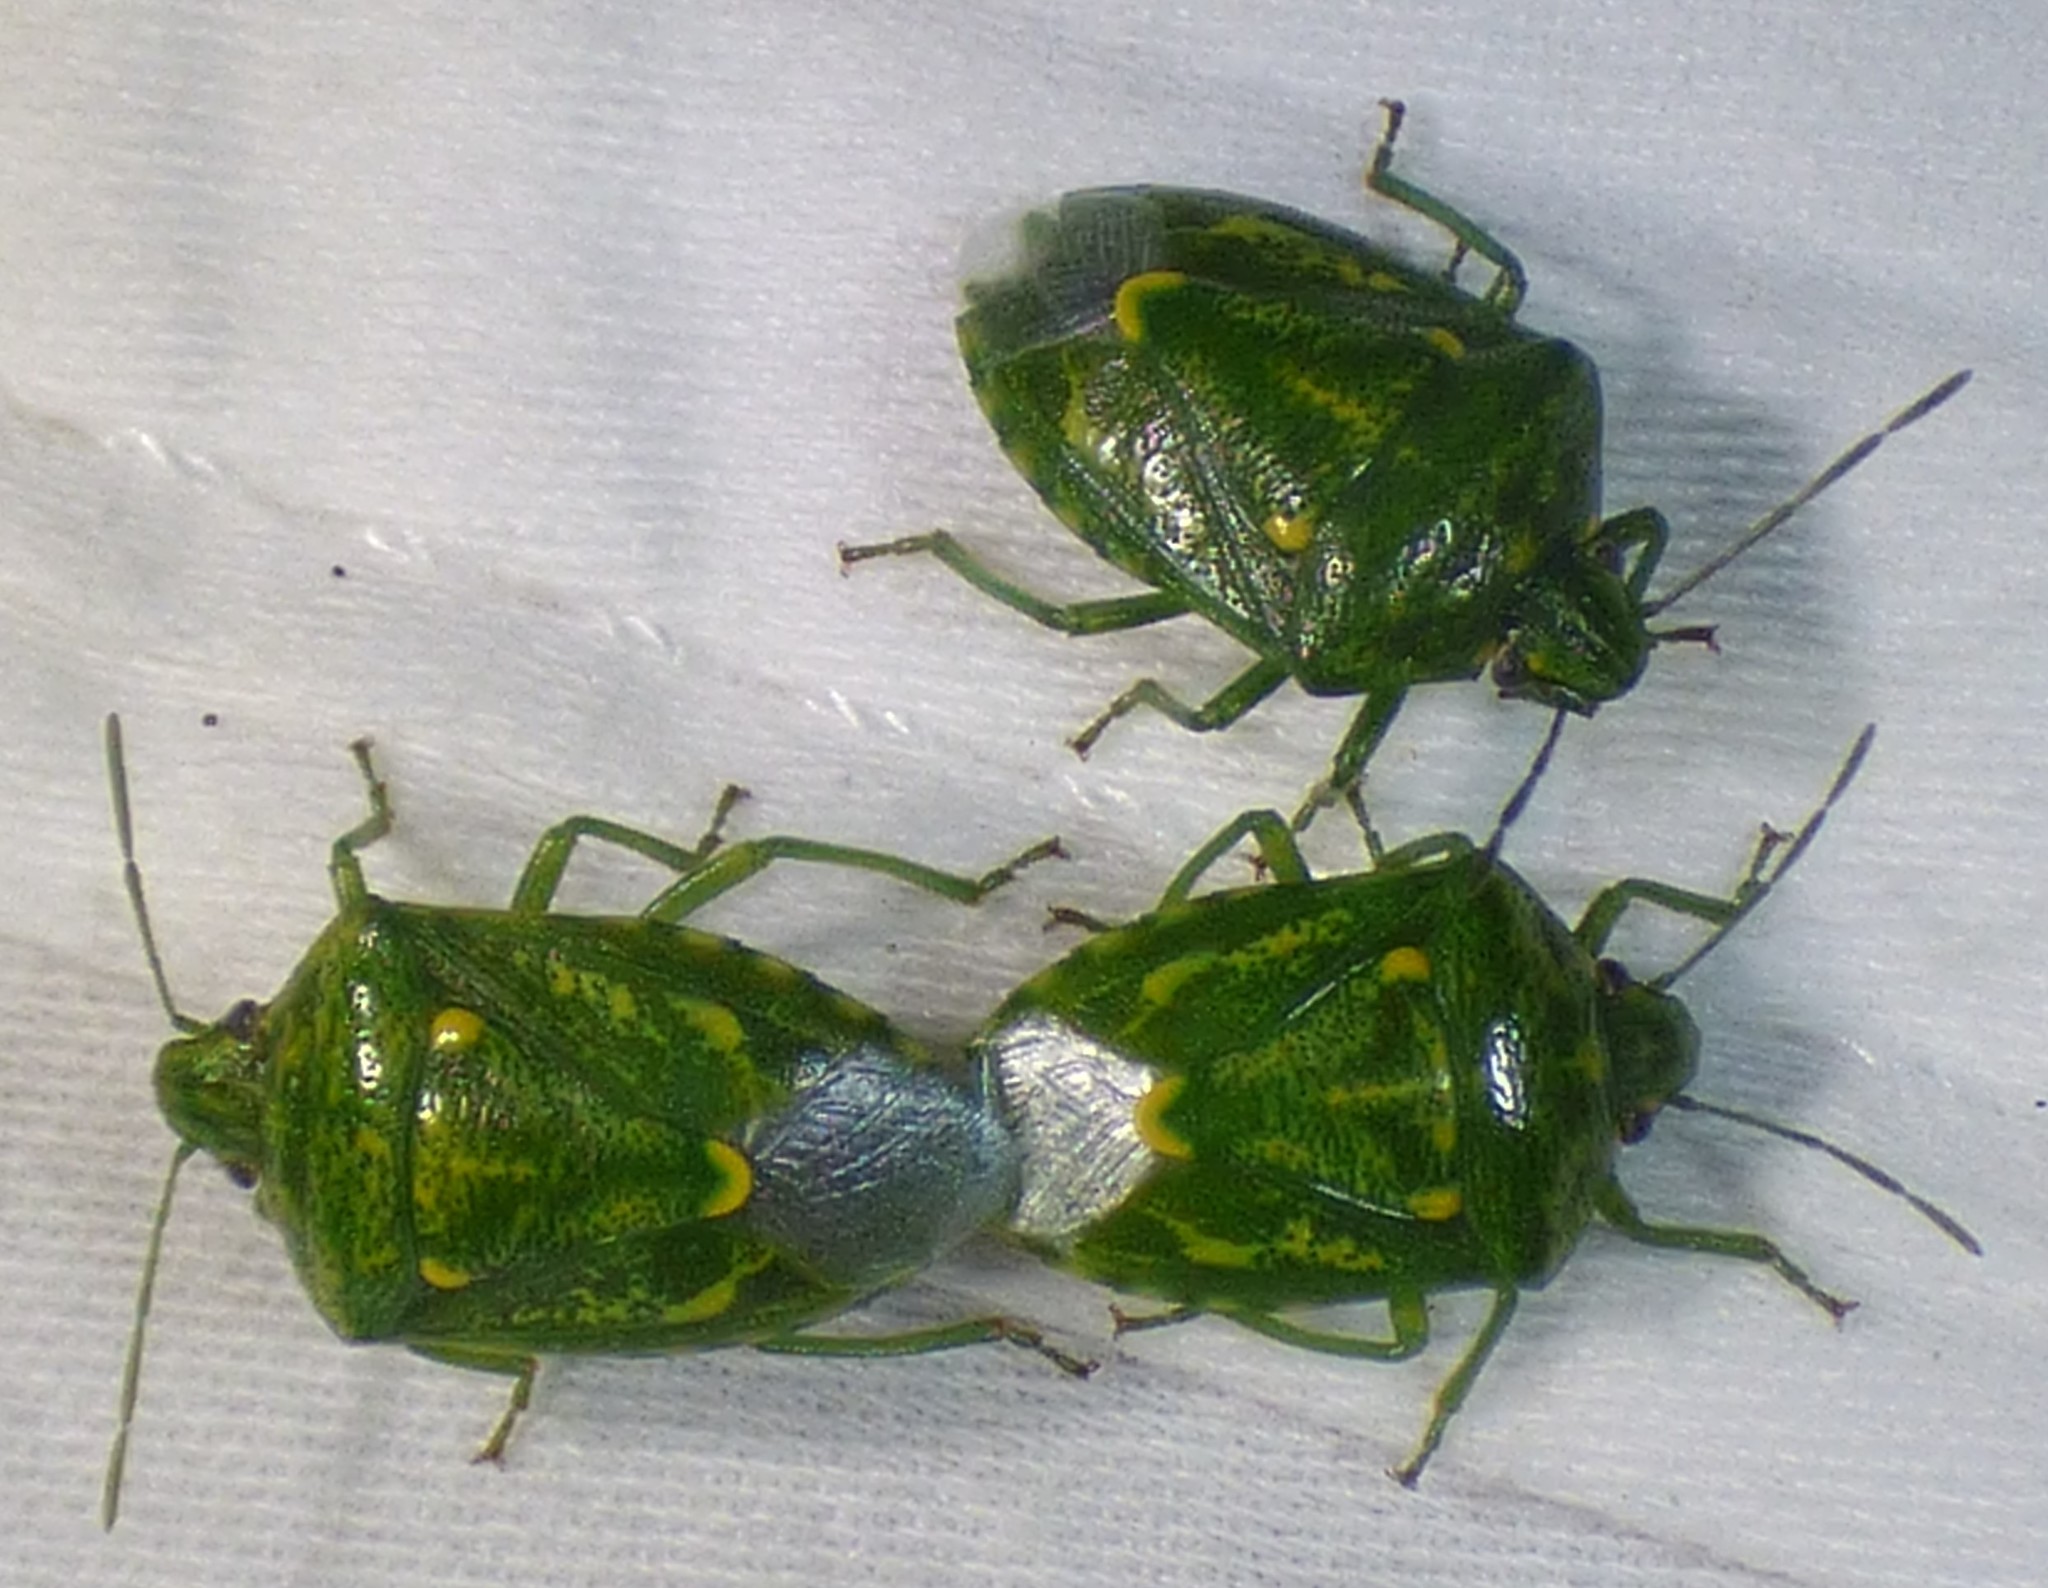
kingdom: Animalia
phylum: Arthropoda
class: Insecta
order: Hemiptera
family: Pentatomidae
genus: Banasa
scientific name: Banasa euchlora
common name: Cedar berry bug
